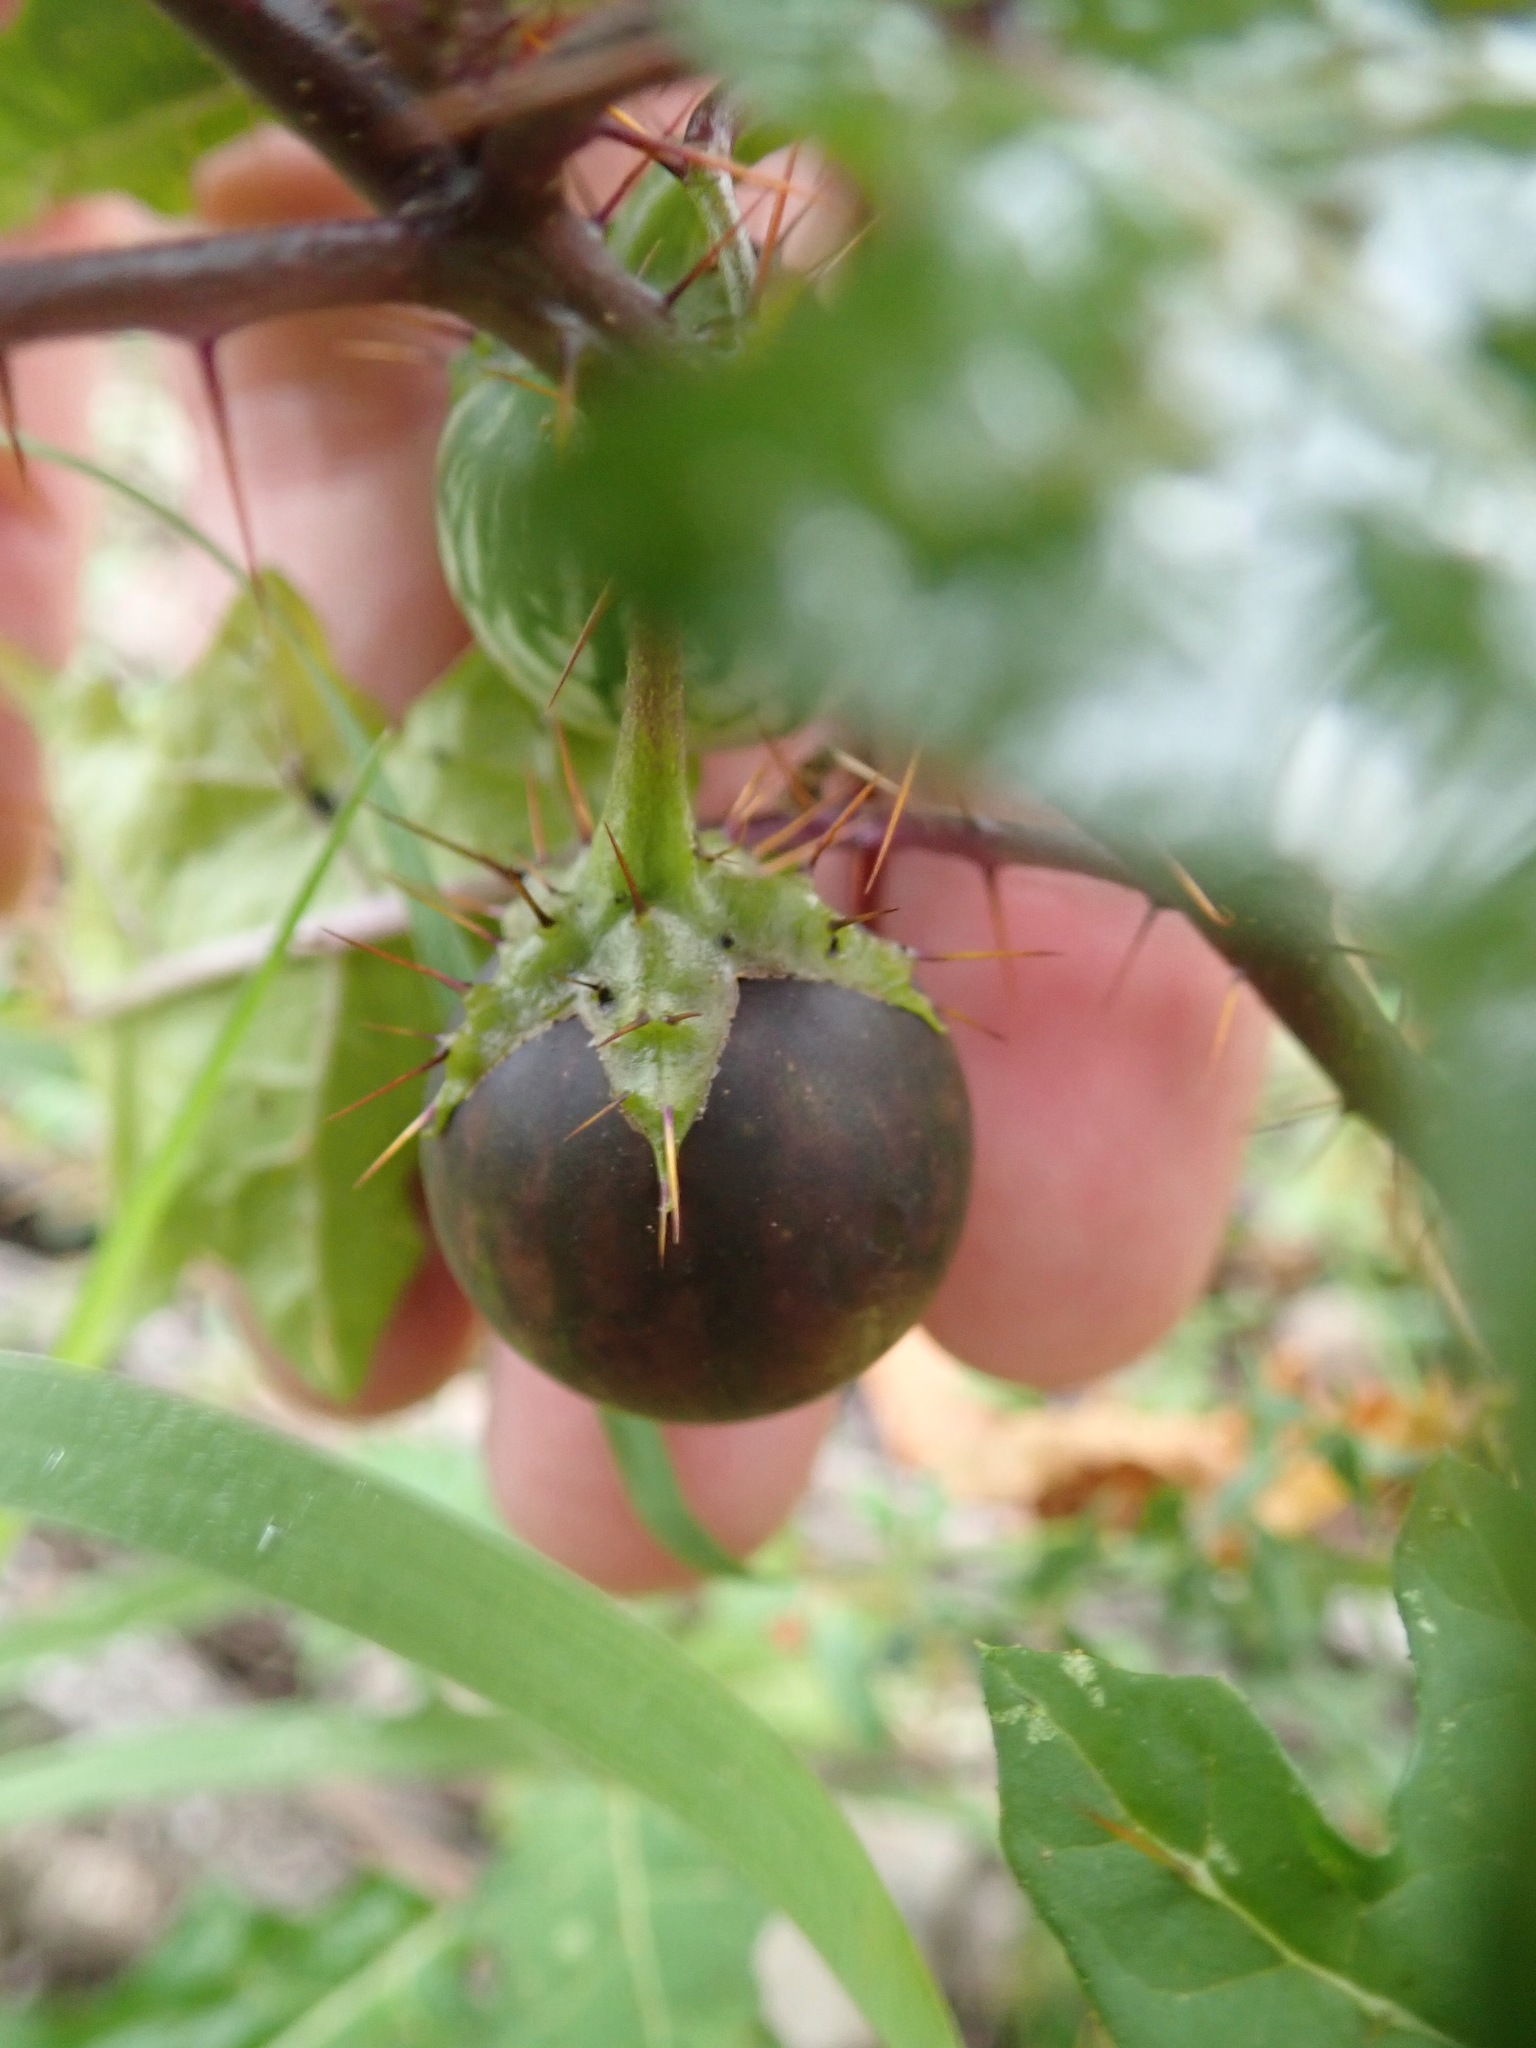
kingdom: Plantae
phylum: Tracheophyta
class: Magnoliopsida
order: Solanales
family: Solanaceae
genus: Solanum
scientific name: Solanum prinophyllum
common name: Forest nightshade
